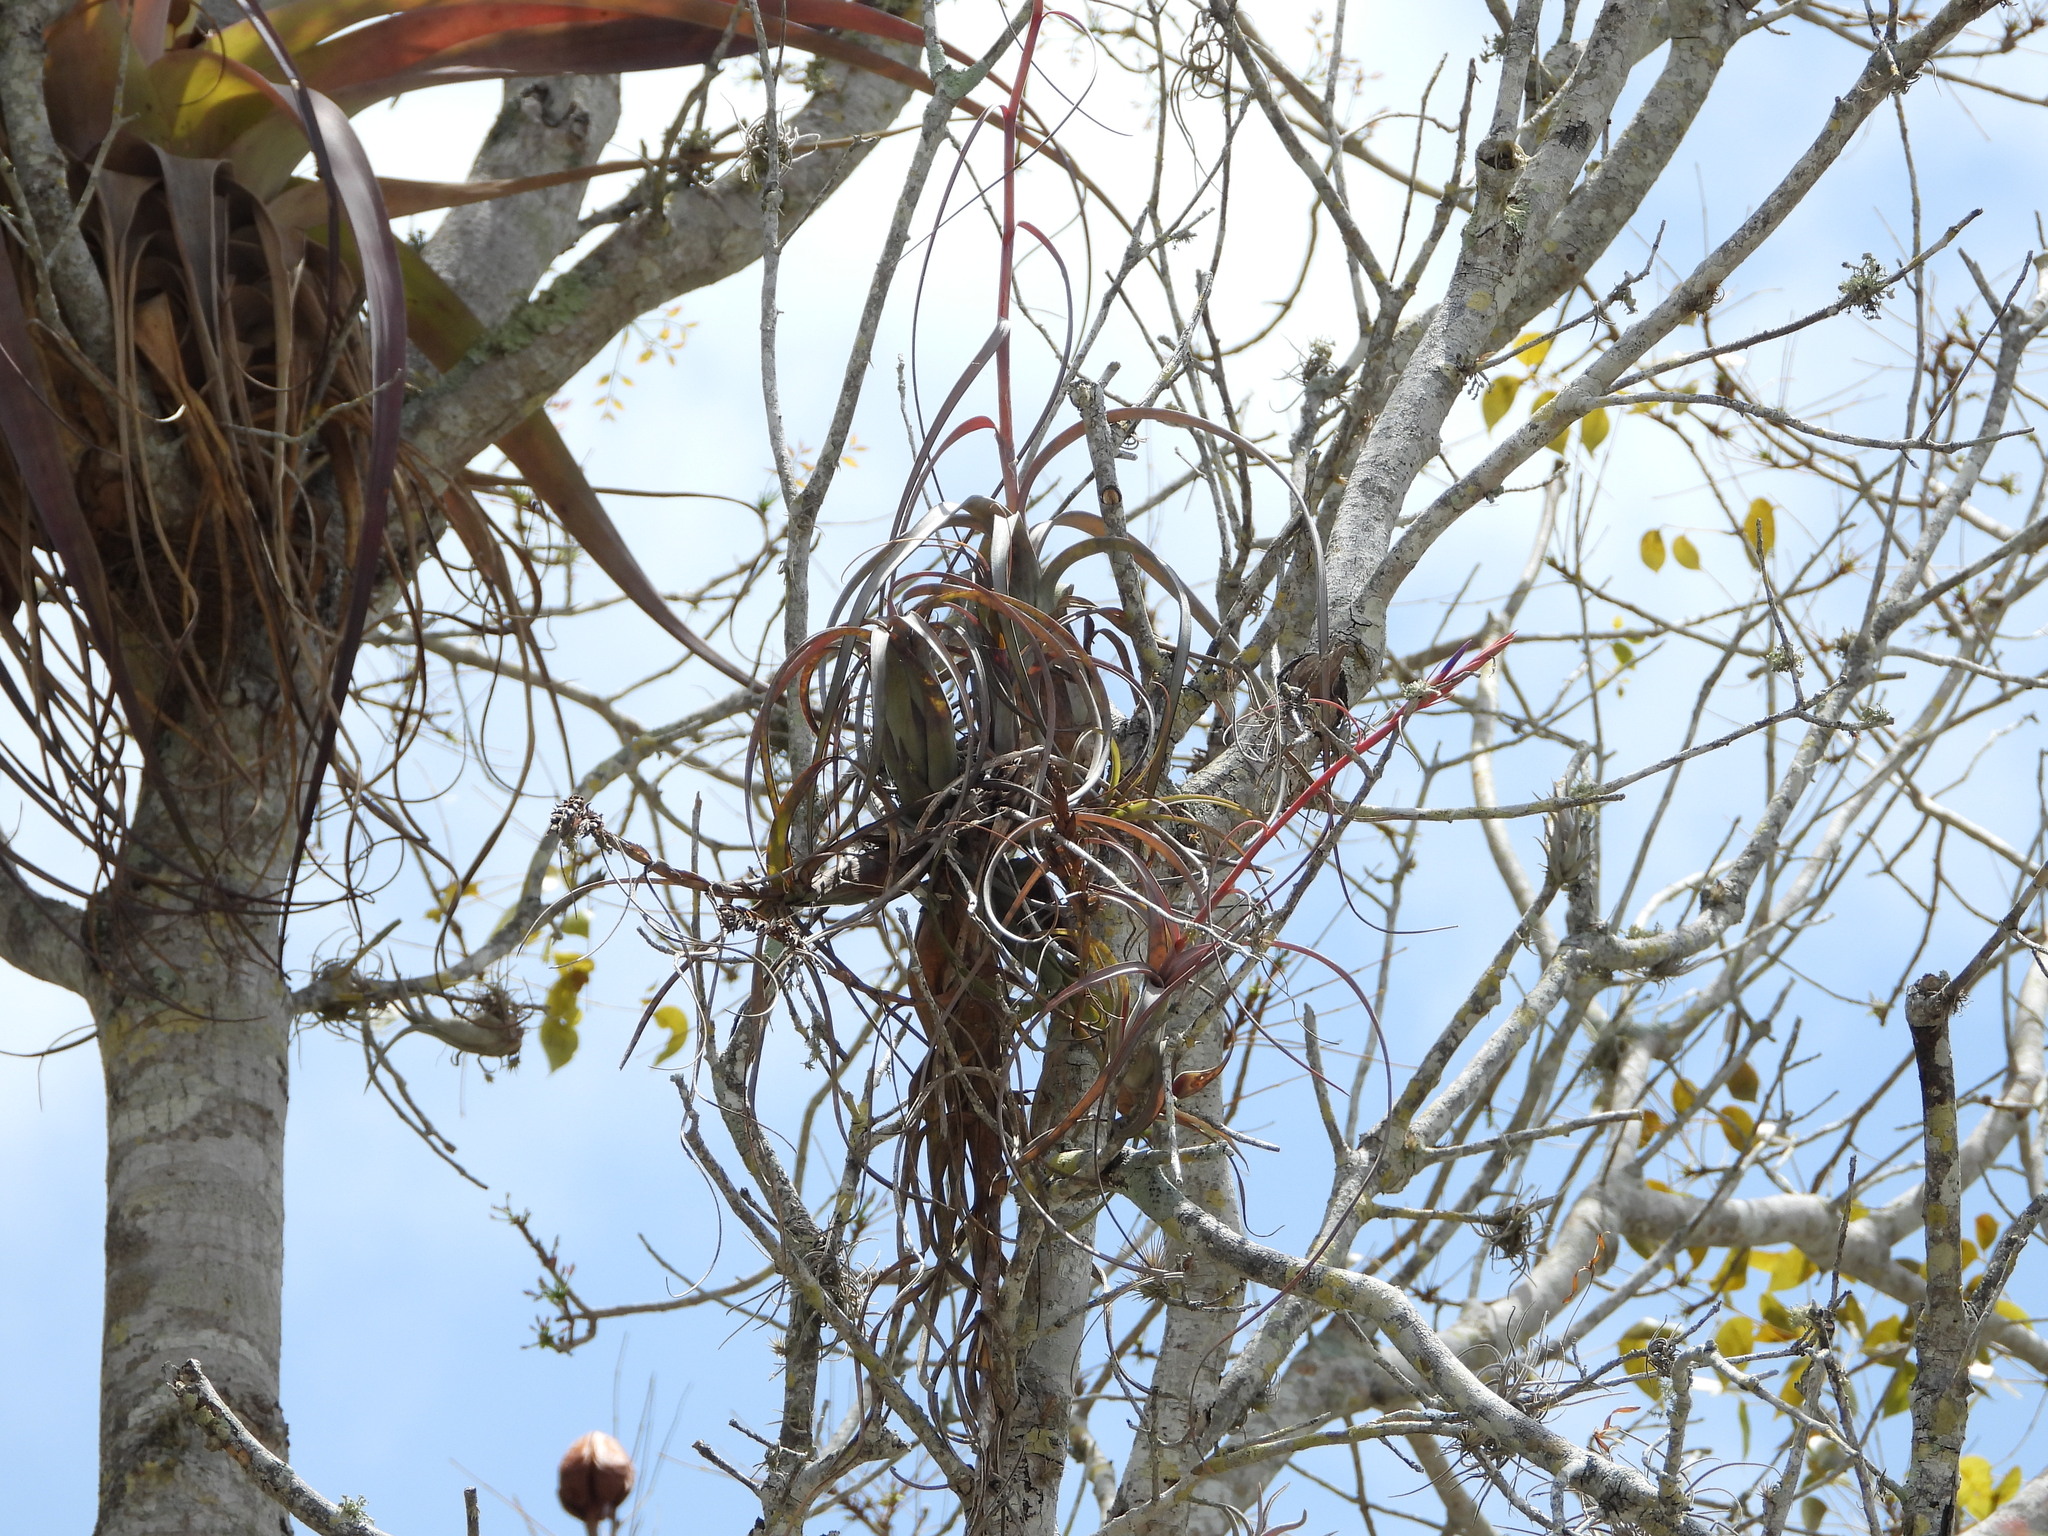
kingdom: Plantae
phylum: Tracheophyta
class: Liliopsida
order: Poales
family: Bromeliaceae
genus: Tillandsia
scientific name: Tillandsia balbisiana
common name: Northern needleleaf
